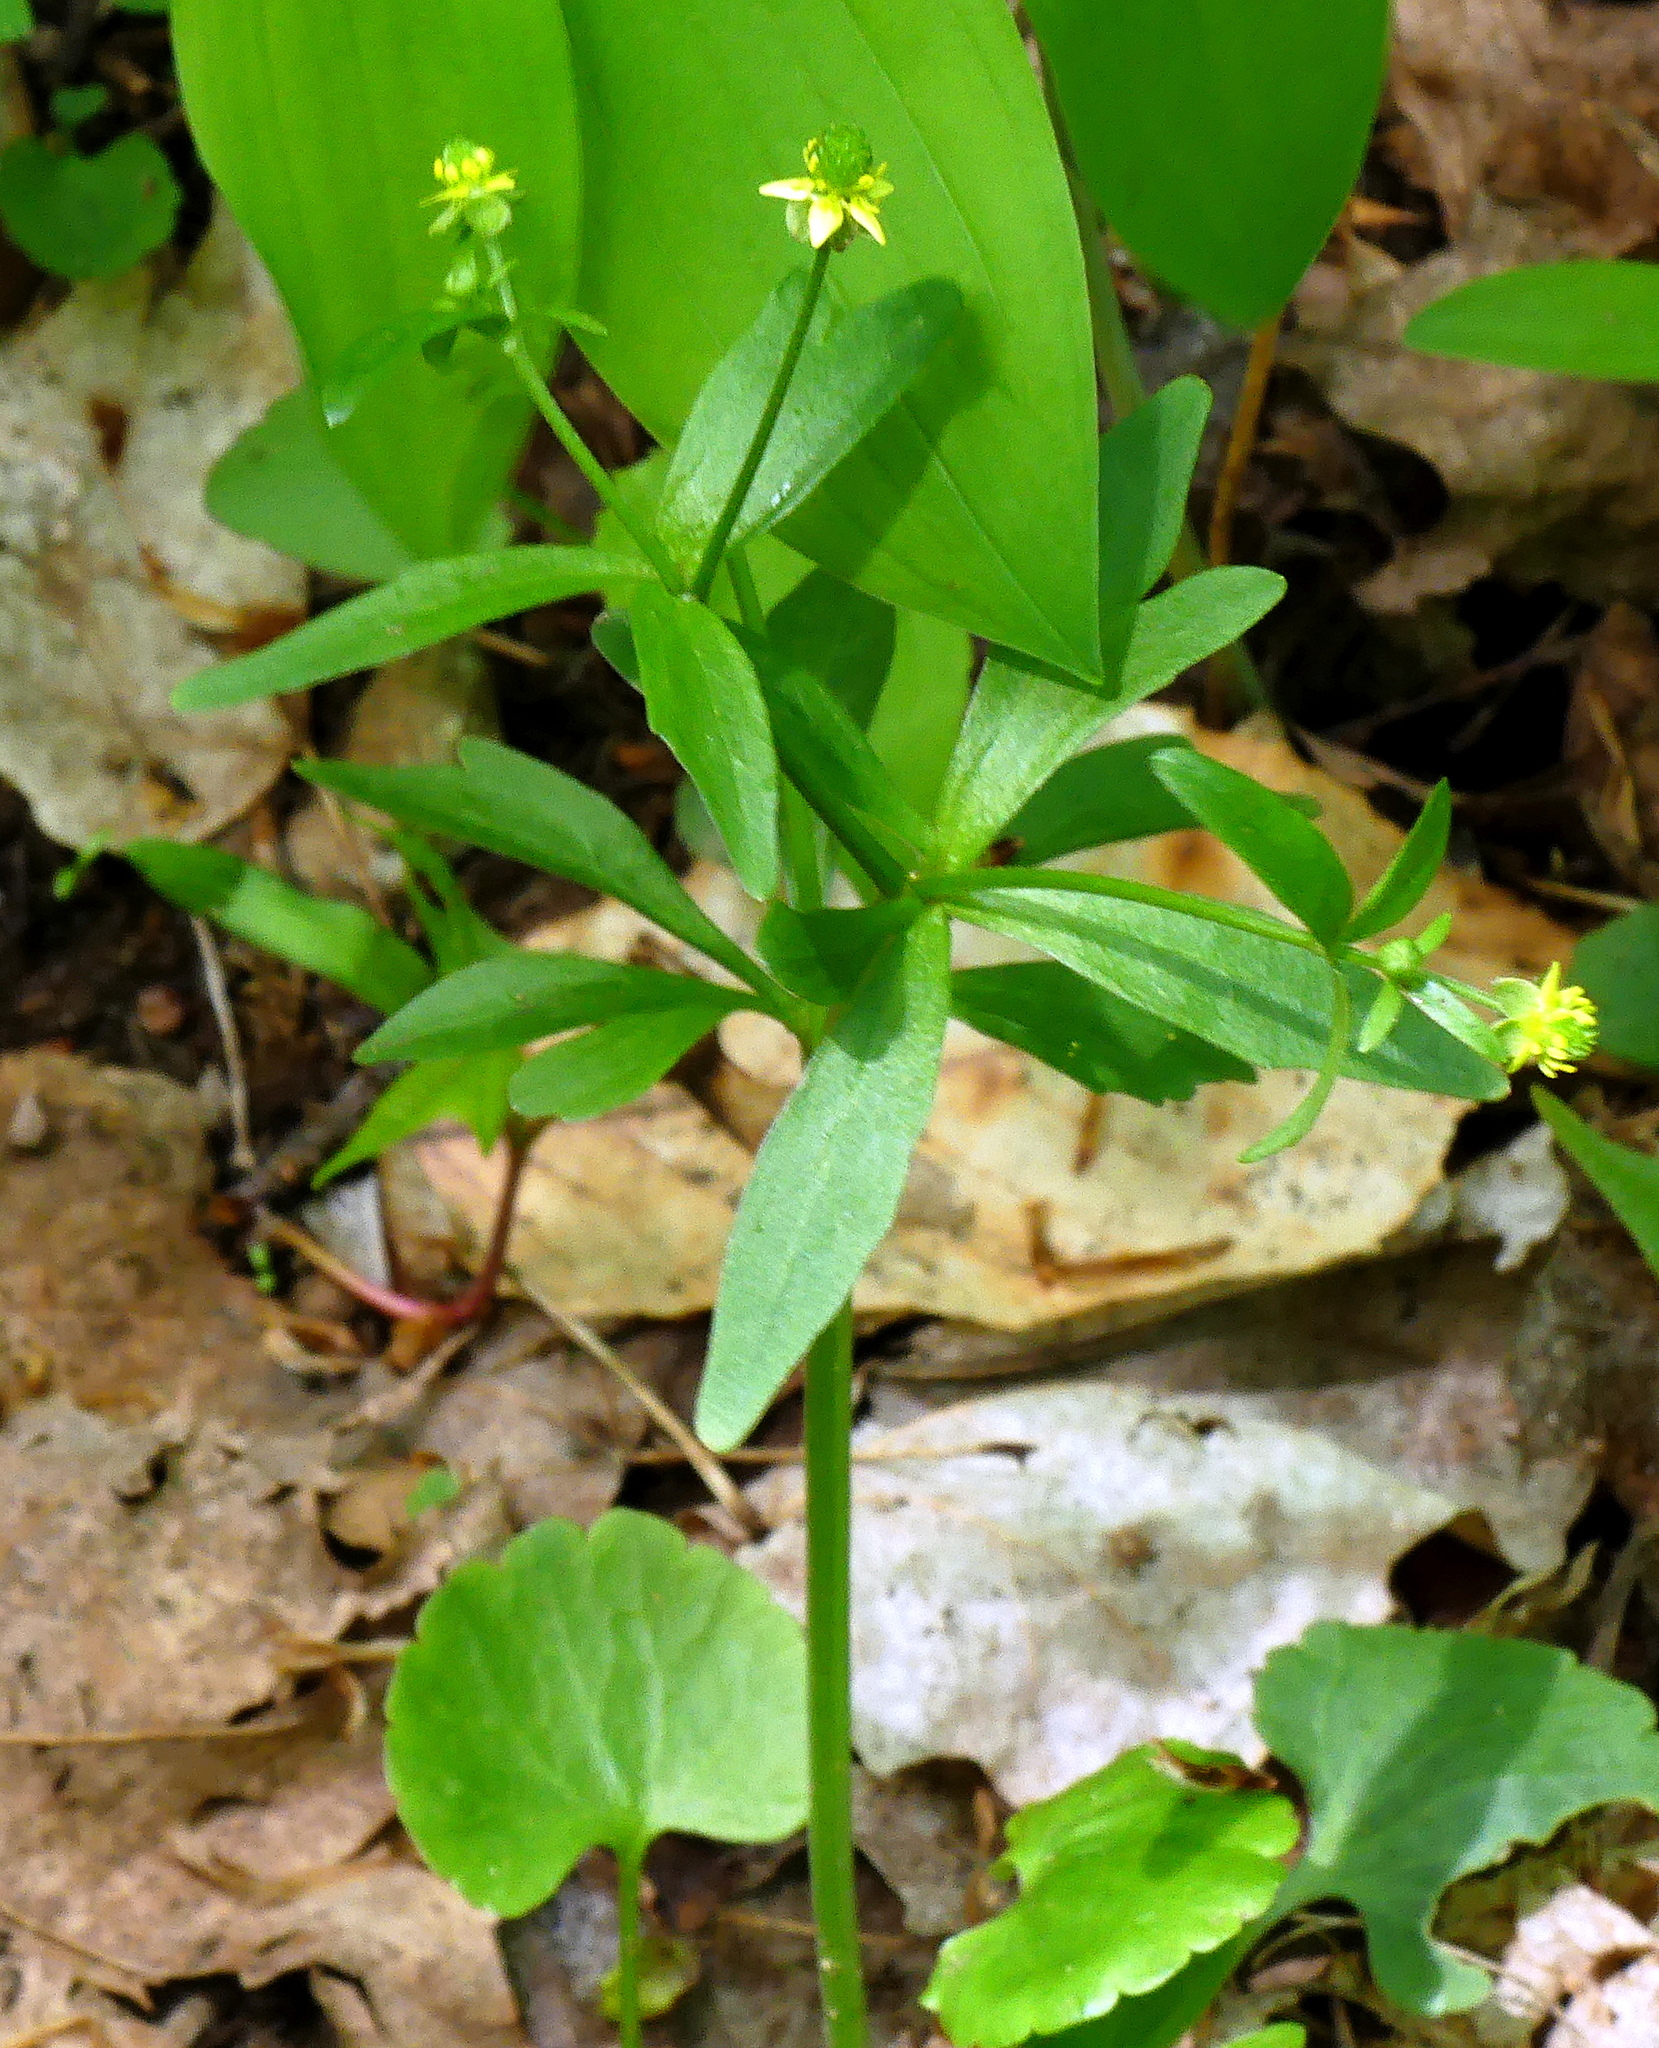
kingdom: Plantae
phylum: Tracheophyta
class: Magnoliopsida
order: Ranunculales
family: Ranunculaceae
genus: Ranunculus
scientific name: Ranunculus abortivus
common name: Early wood buttercup
